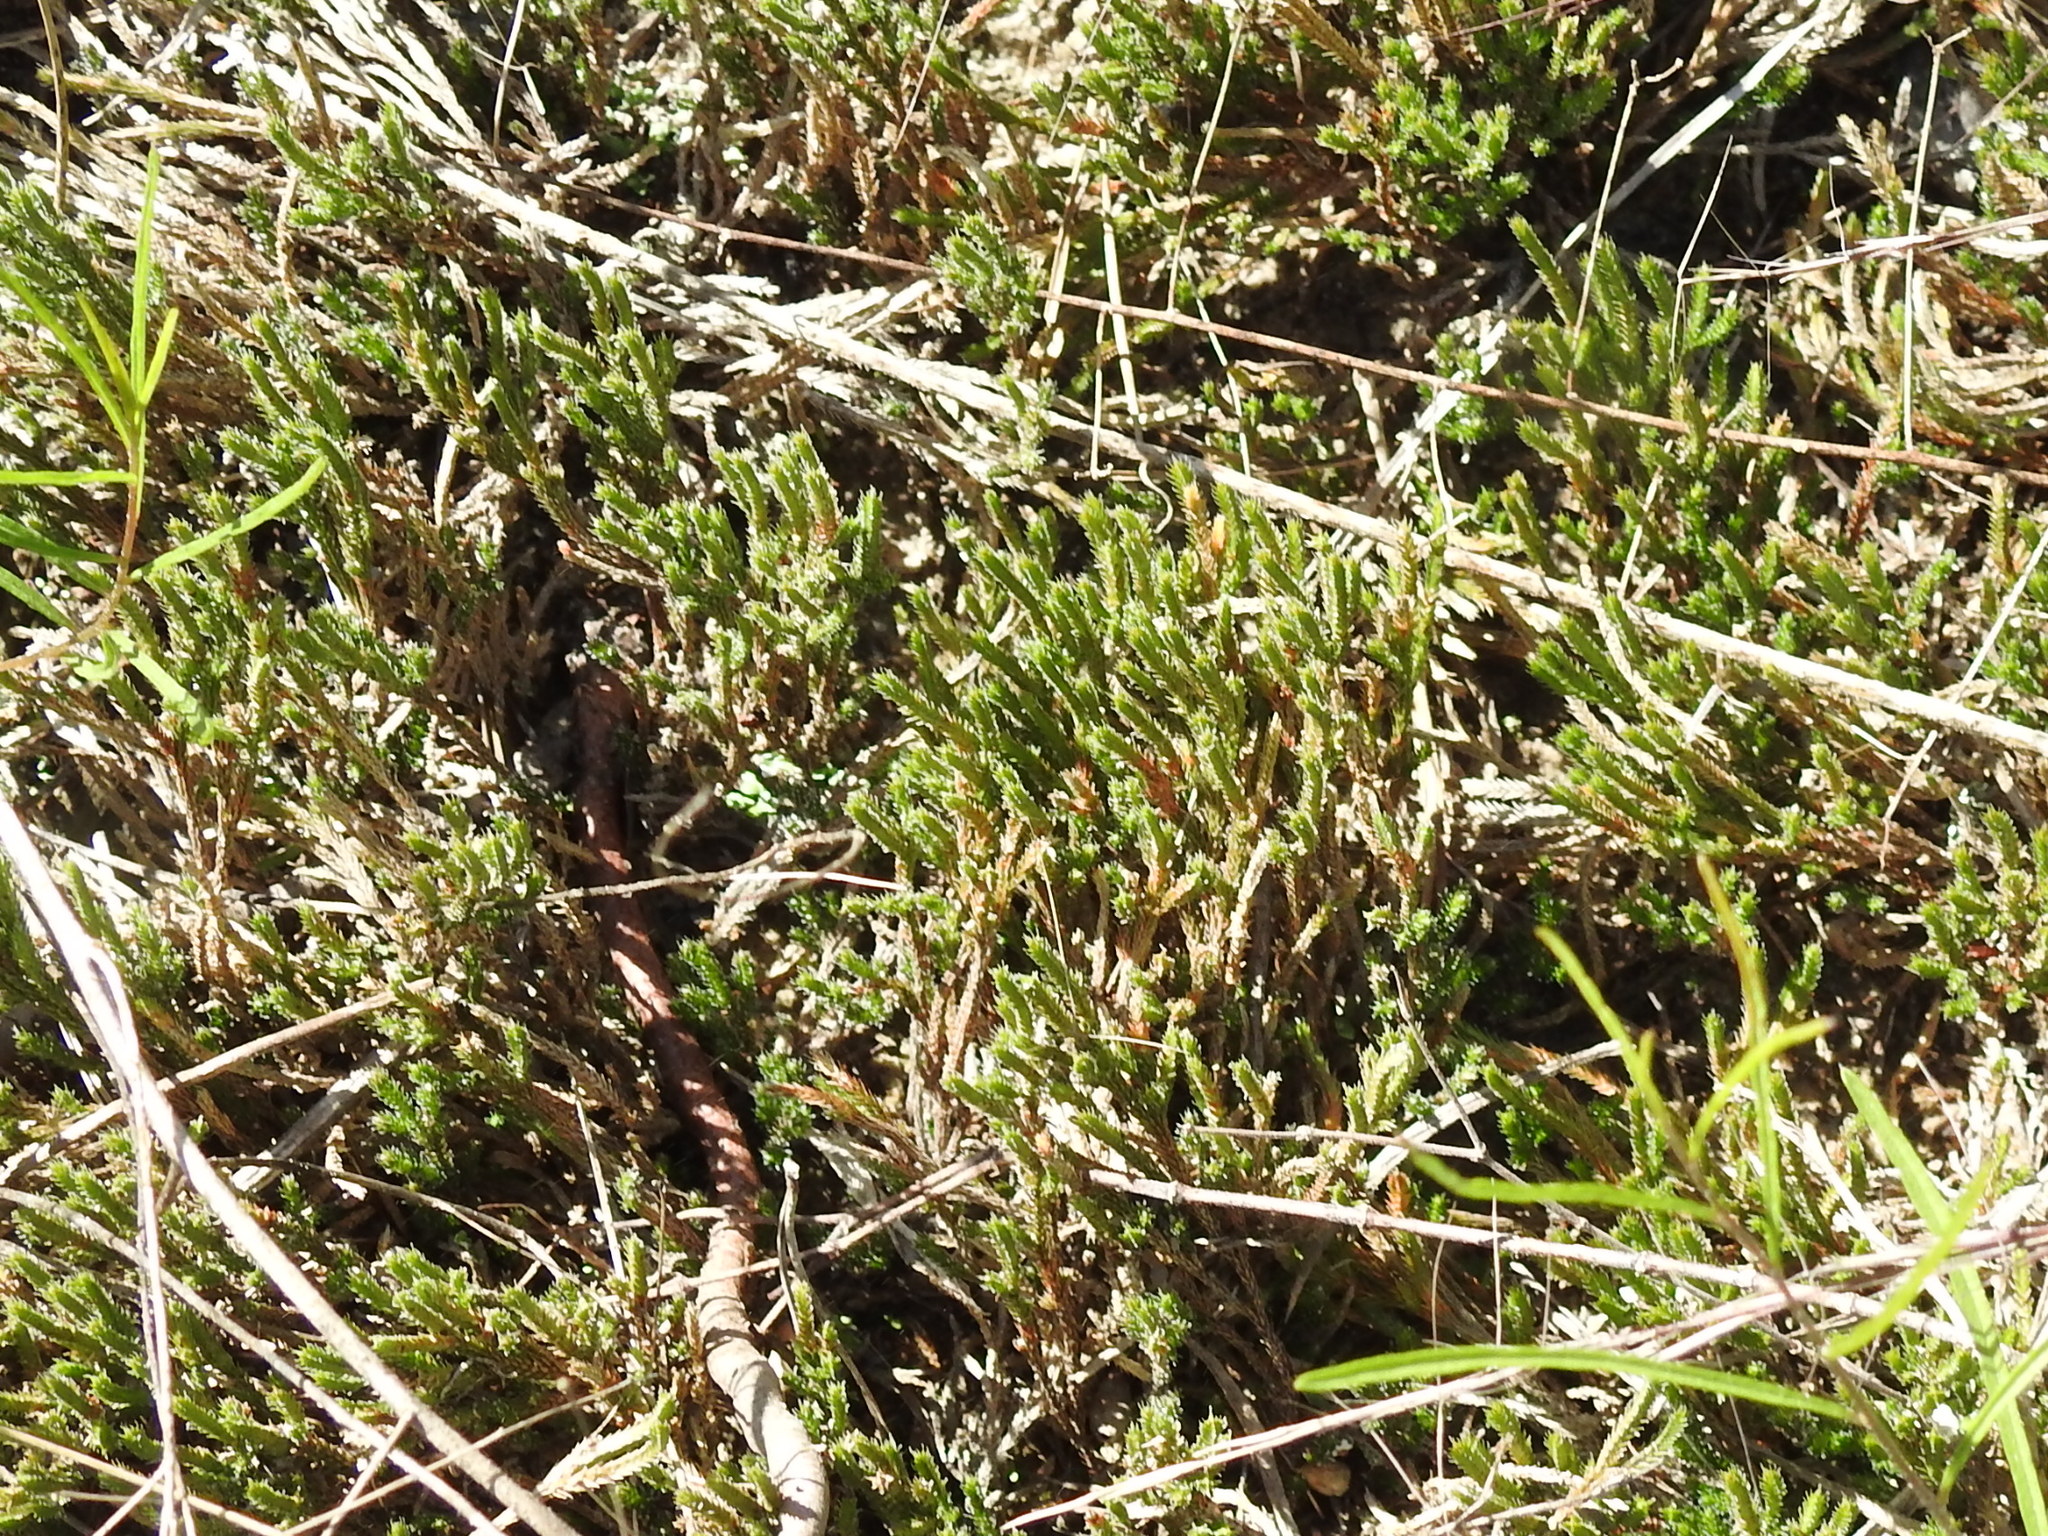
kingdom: Plantae
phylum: Tracheophyta
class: Lycopodiopsida
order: Selaginellales
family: Selaginellaceae
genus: Selaginella
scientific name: Selaginella corallina
